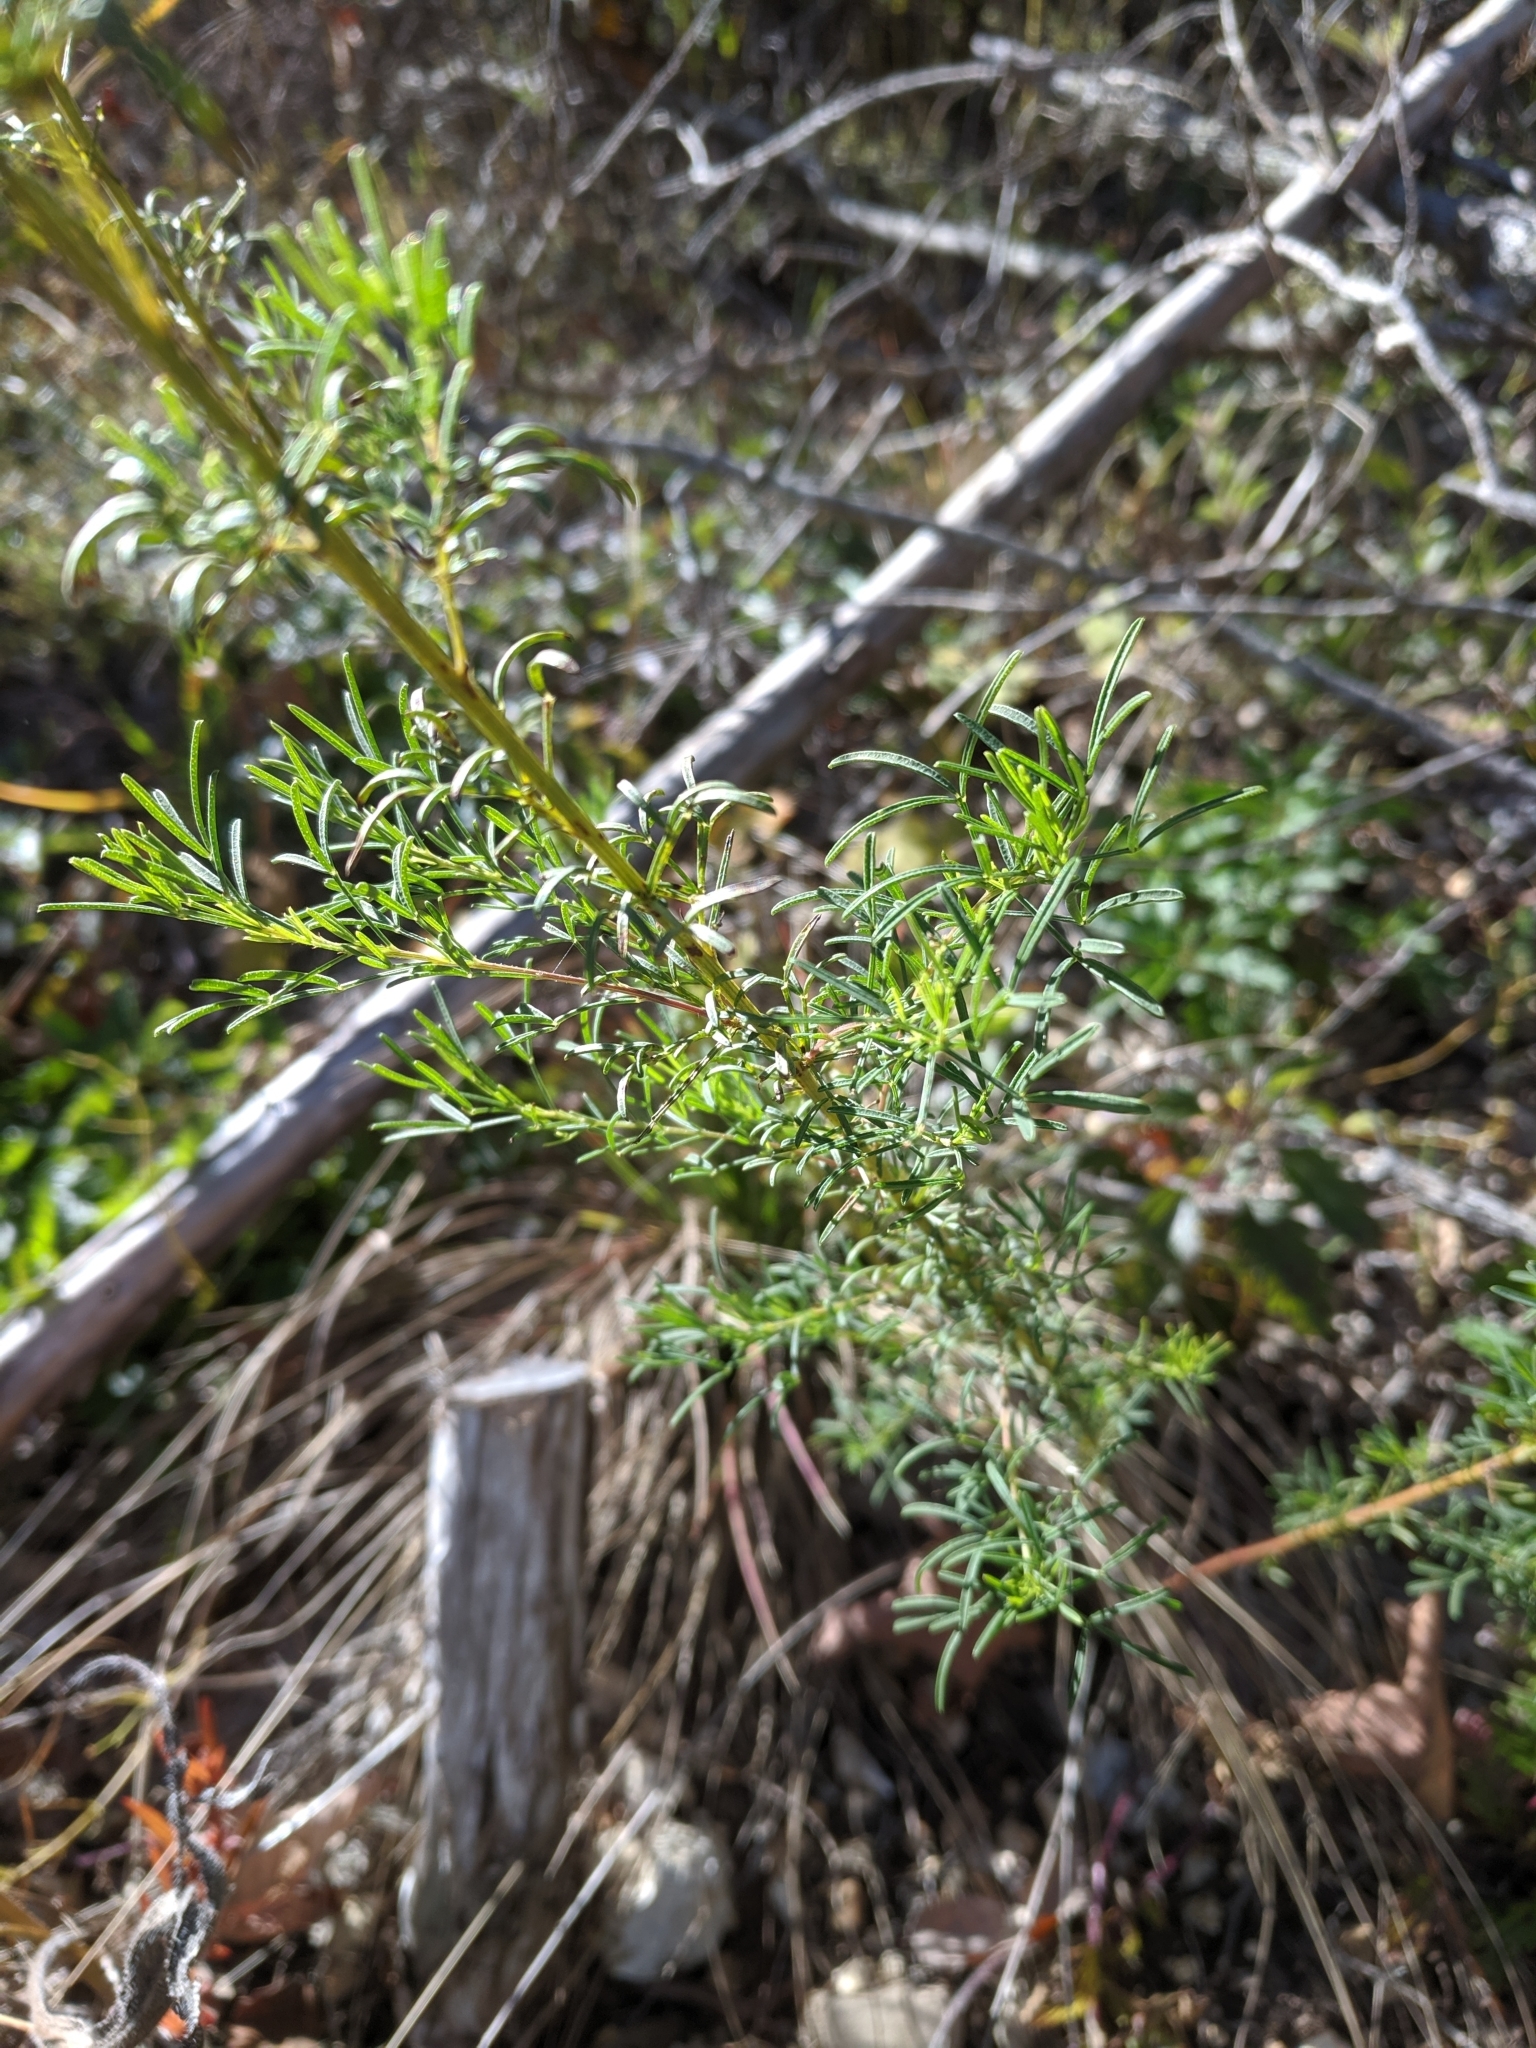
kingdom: Plantae
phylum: Tracheophyta
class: Magnoliopsida
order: Fabales
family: Fabaceae
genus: Dalea
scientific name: Dalea purpurea
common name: Purple prairie-clover
